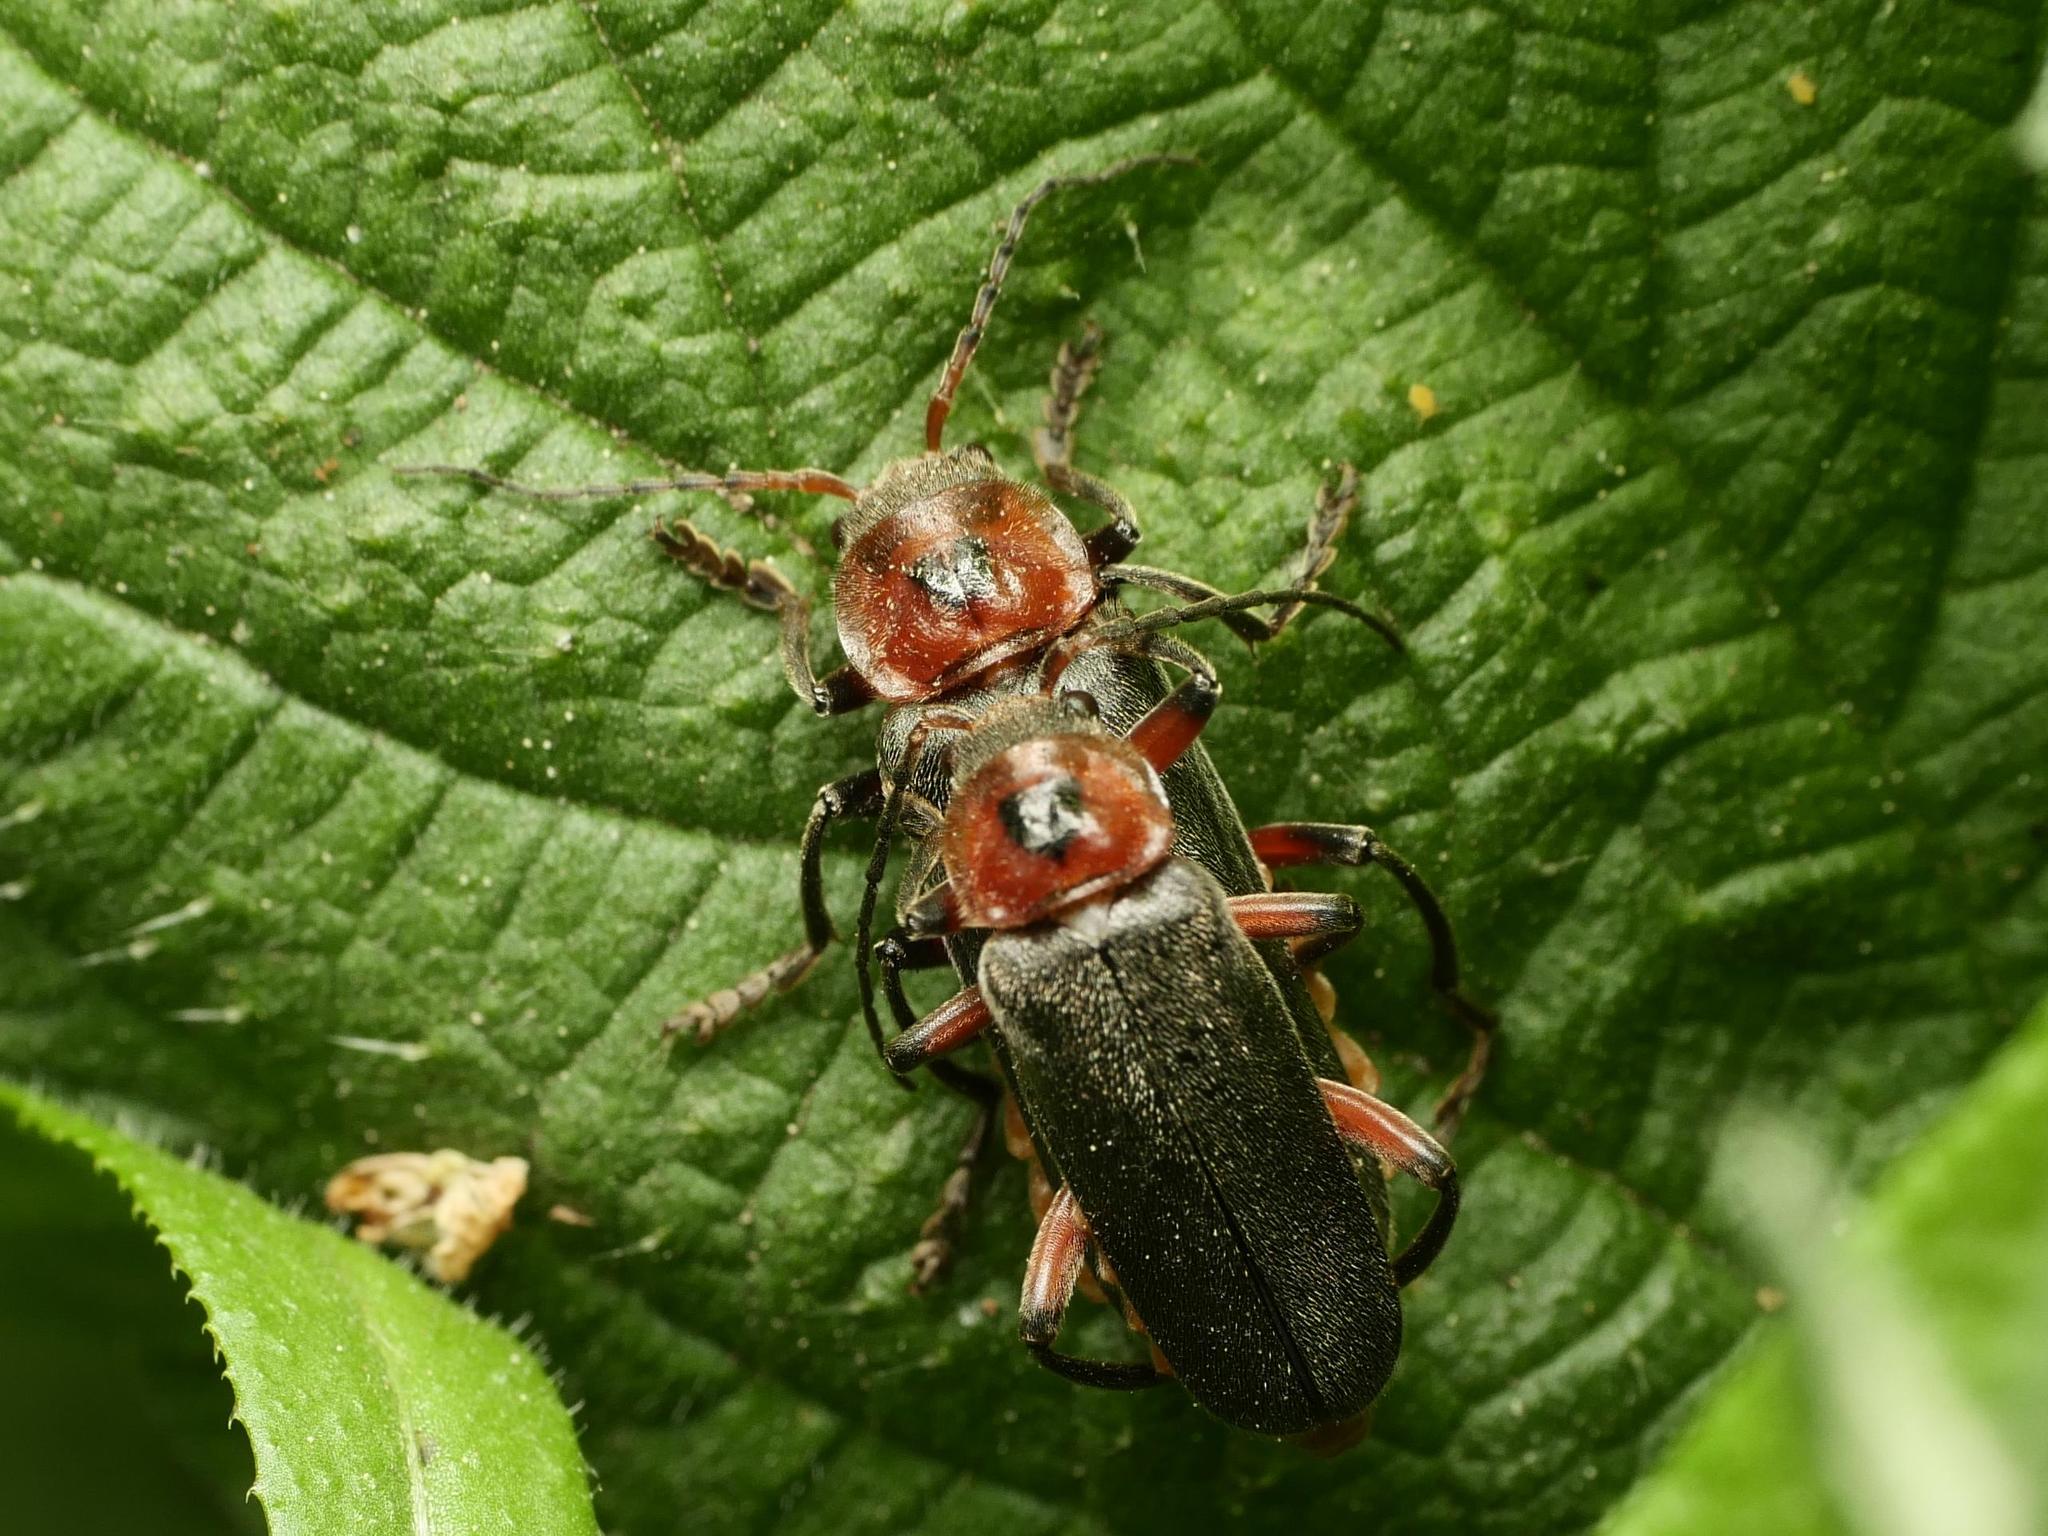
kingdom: Animalia
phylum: Arthropoda
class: Insecta
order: Coleoptera
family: Cantharidae
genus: Cantharis
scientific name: Cantharis rustica
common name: Soldier beetle
